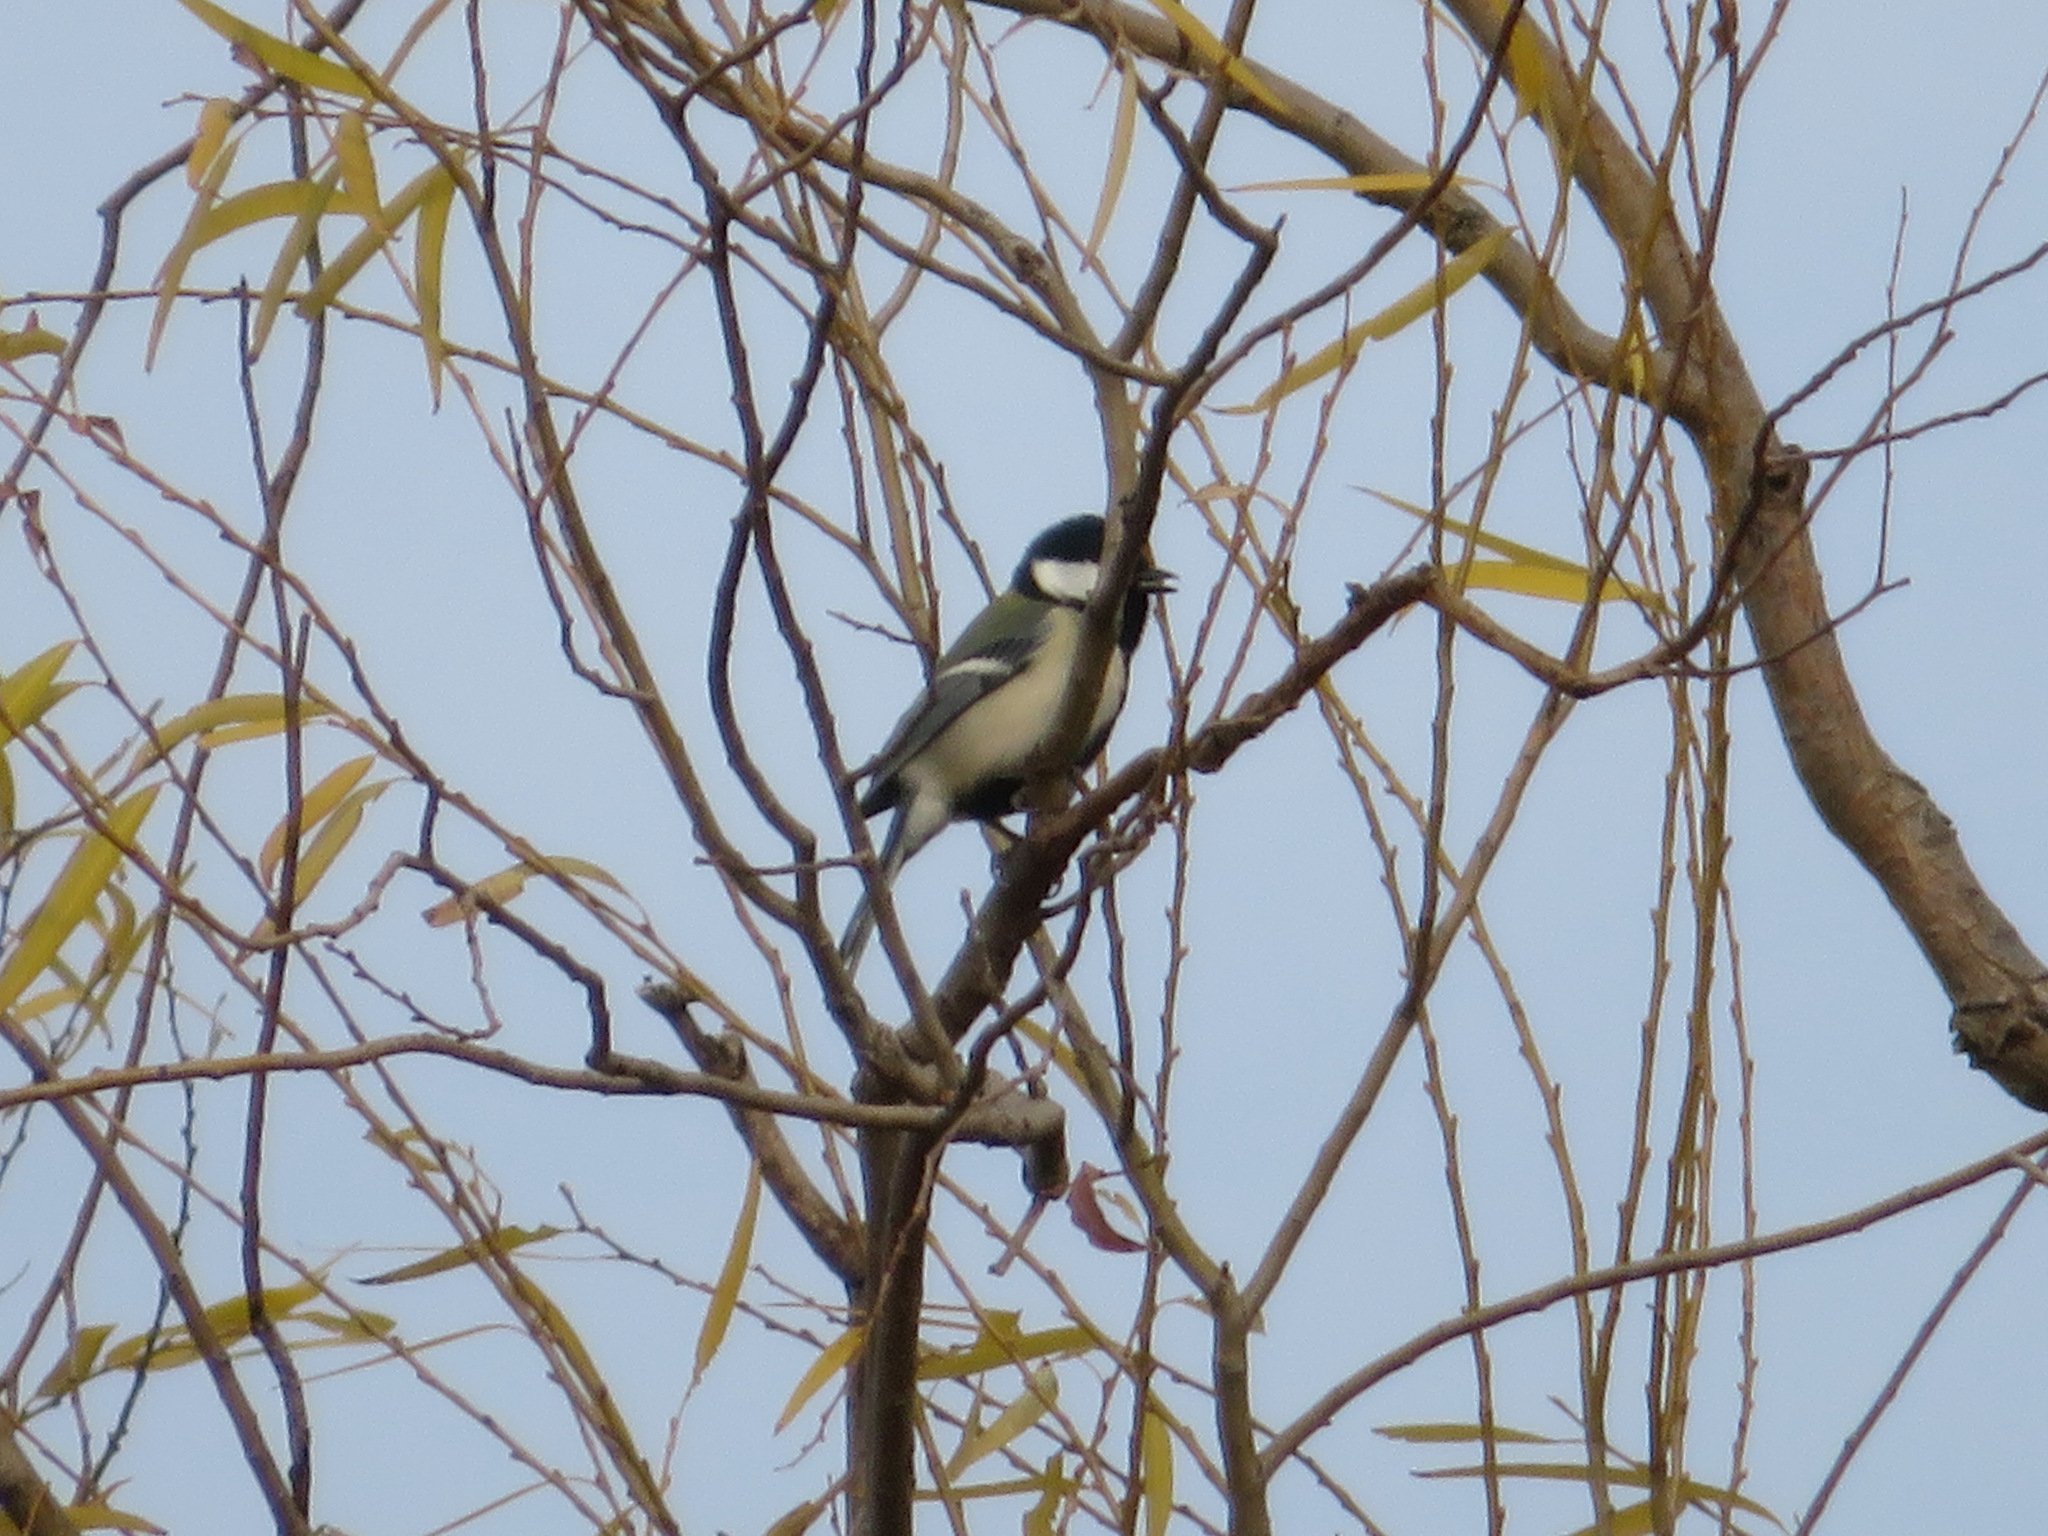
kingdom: Animalia
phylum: Chordata
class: Aves
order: Passeriformes
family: Paridae
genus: Parus
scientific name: Parus minor
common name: Japanese tit
